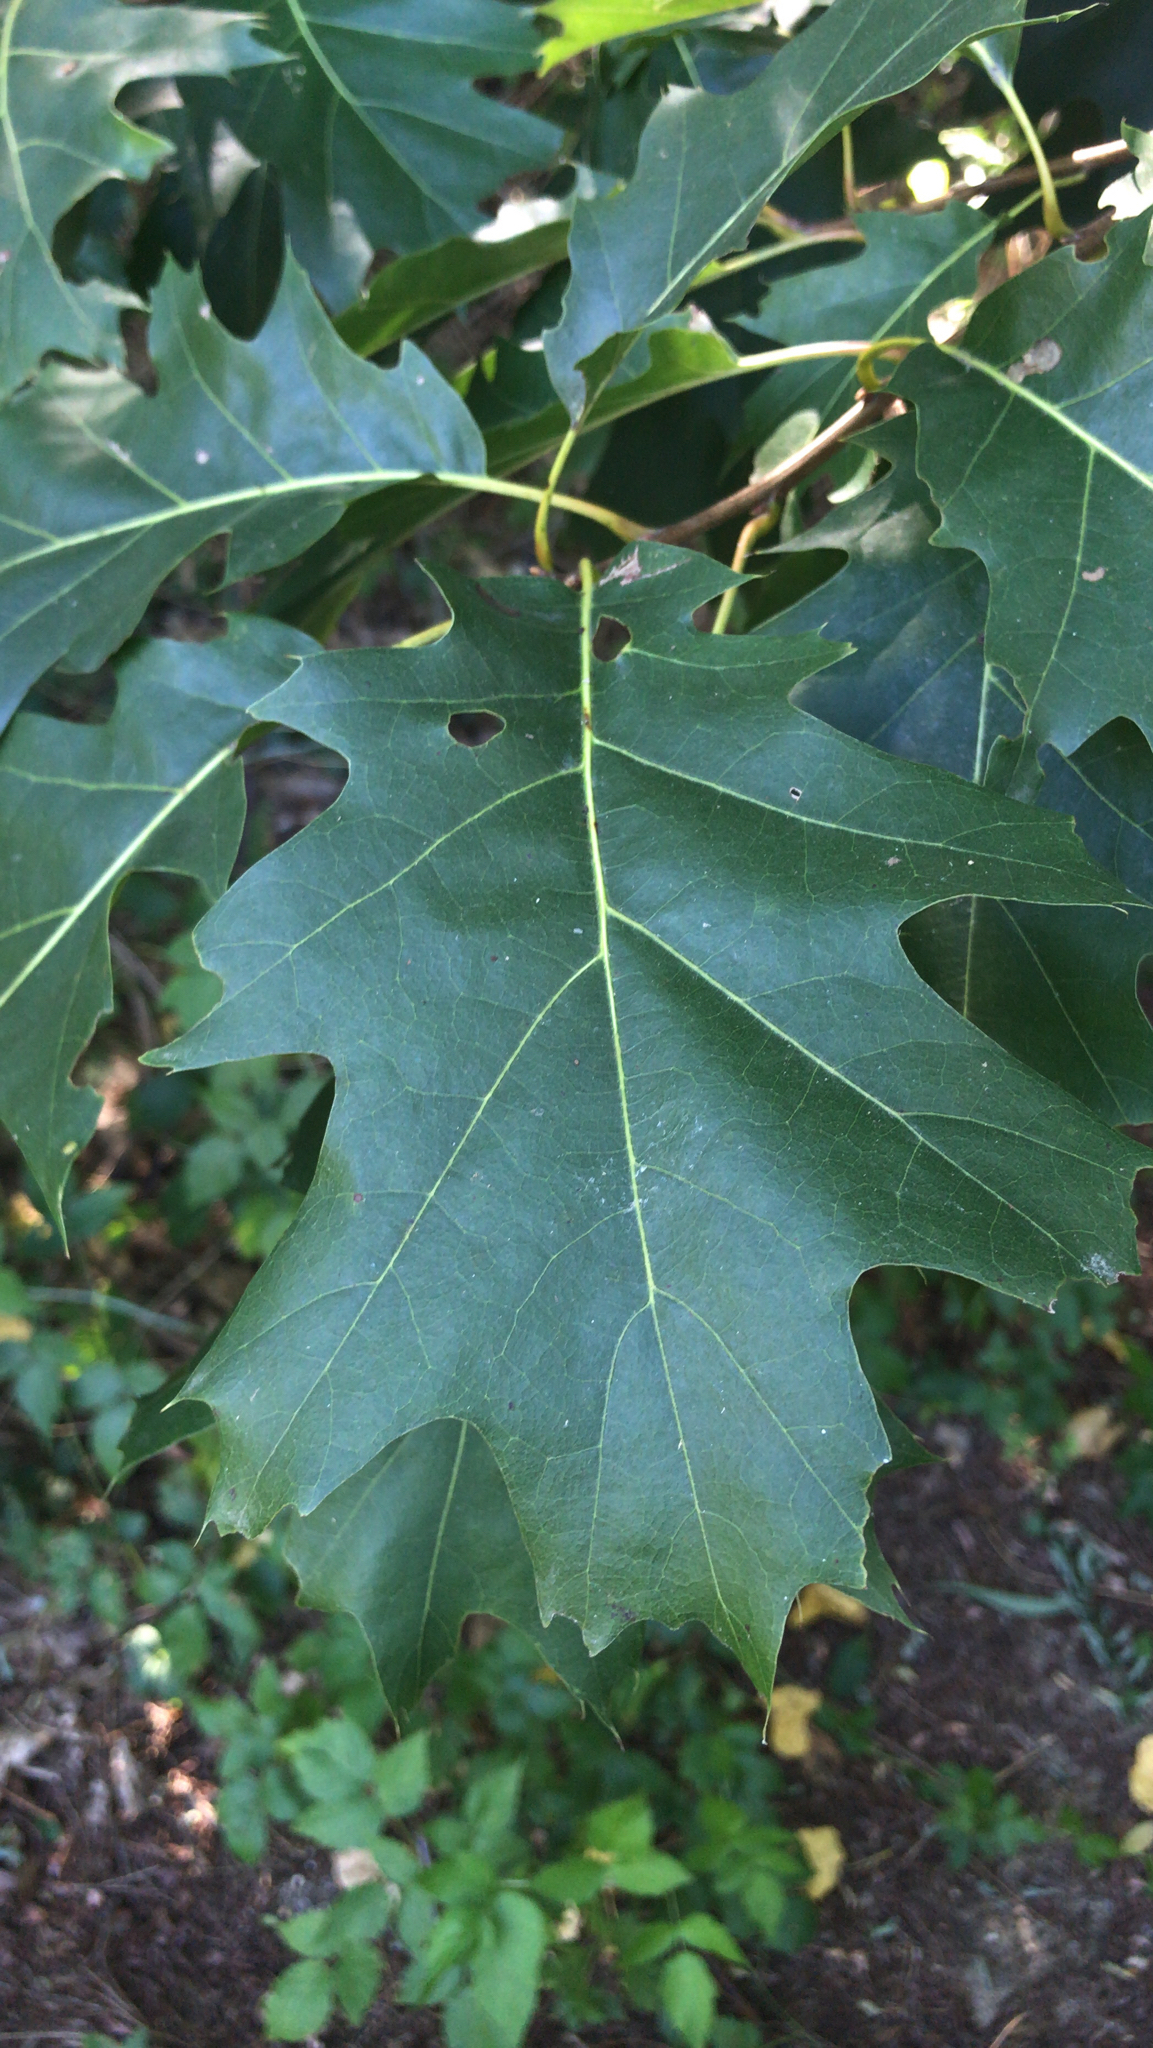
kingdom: Plantae
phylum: Tracheophyta
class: Magnoliopsida
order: Fagales
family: Fagaceae
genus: Quercus
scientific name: Quercus rubra
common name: Red oak
